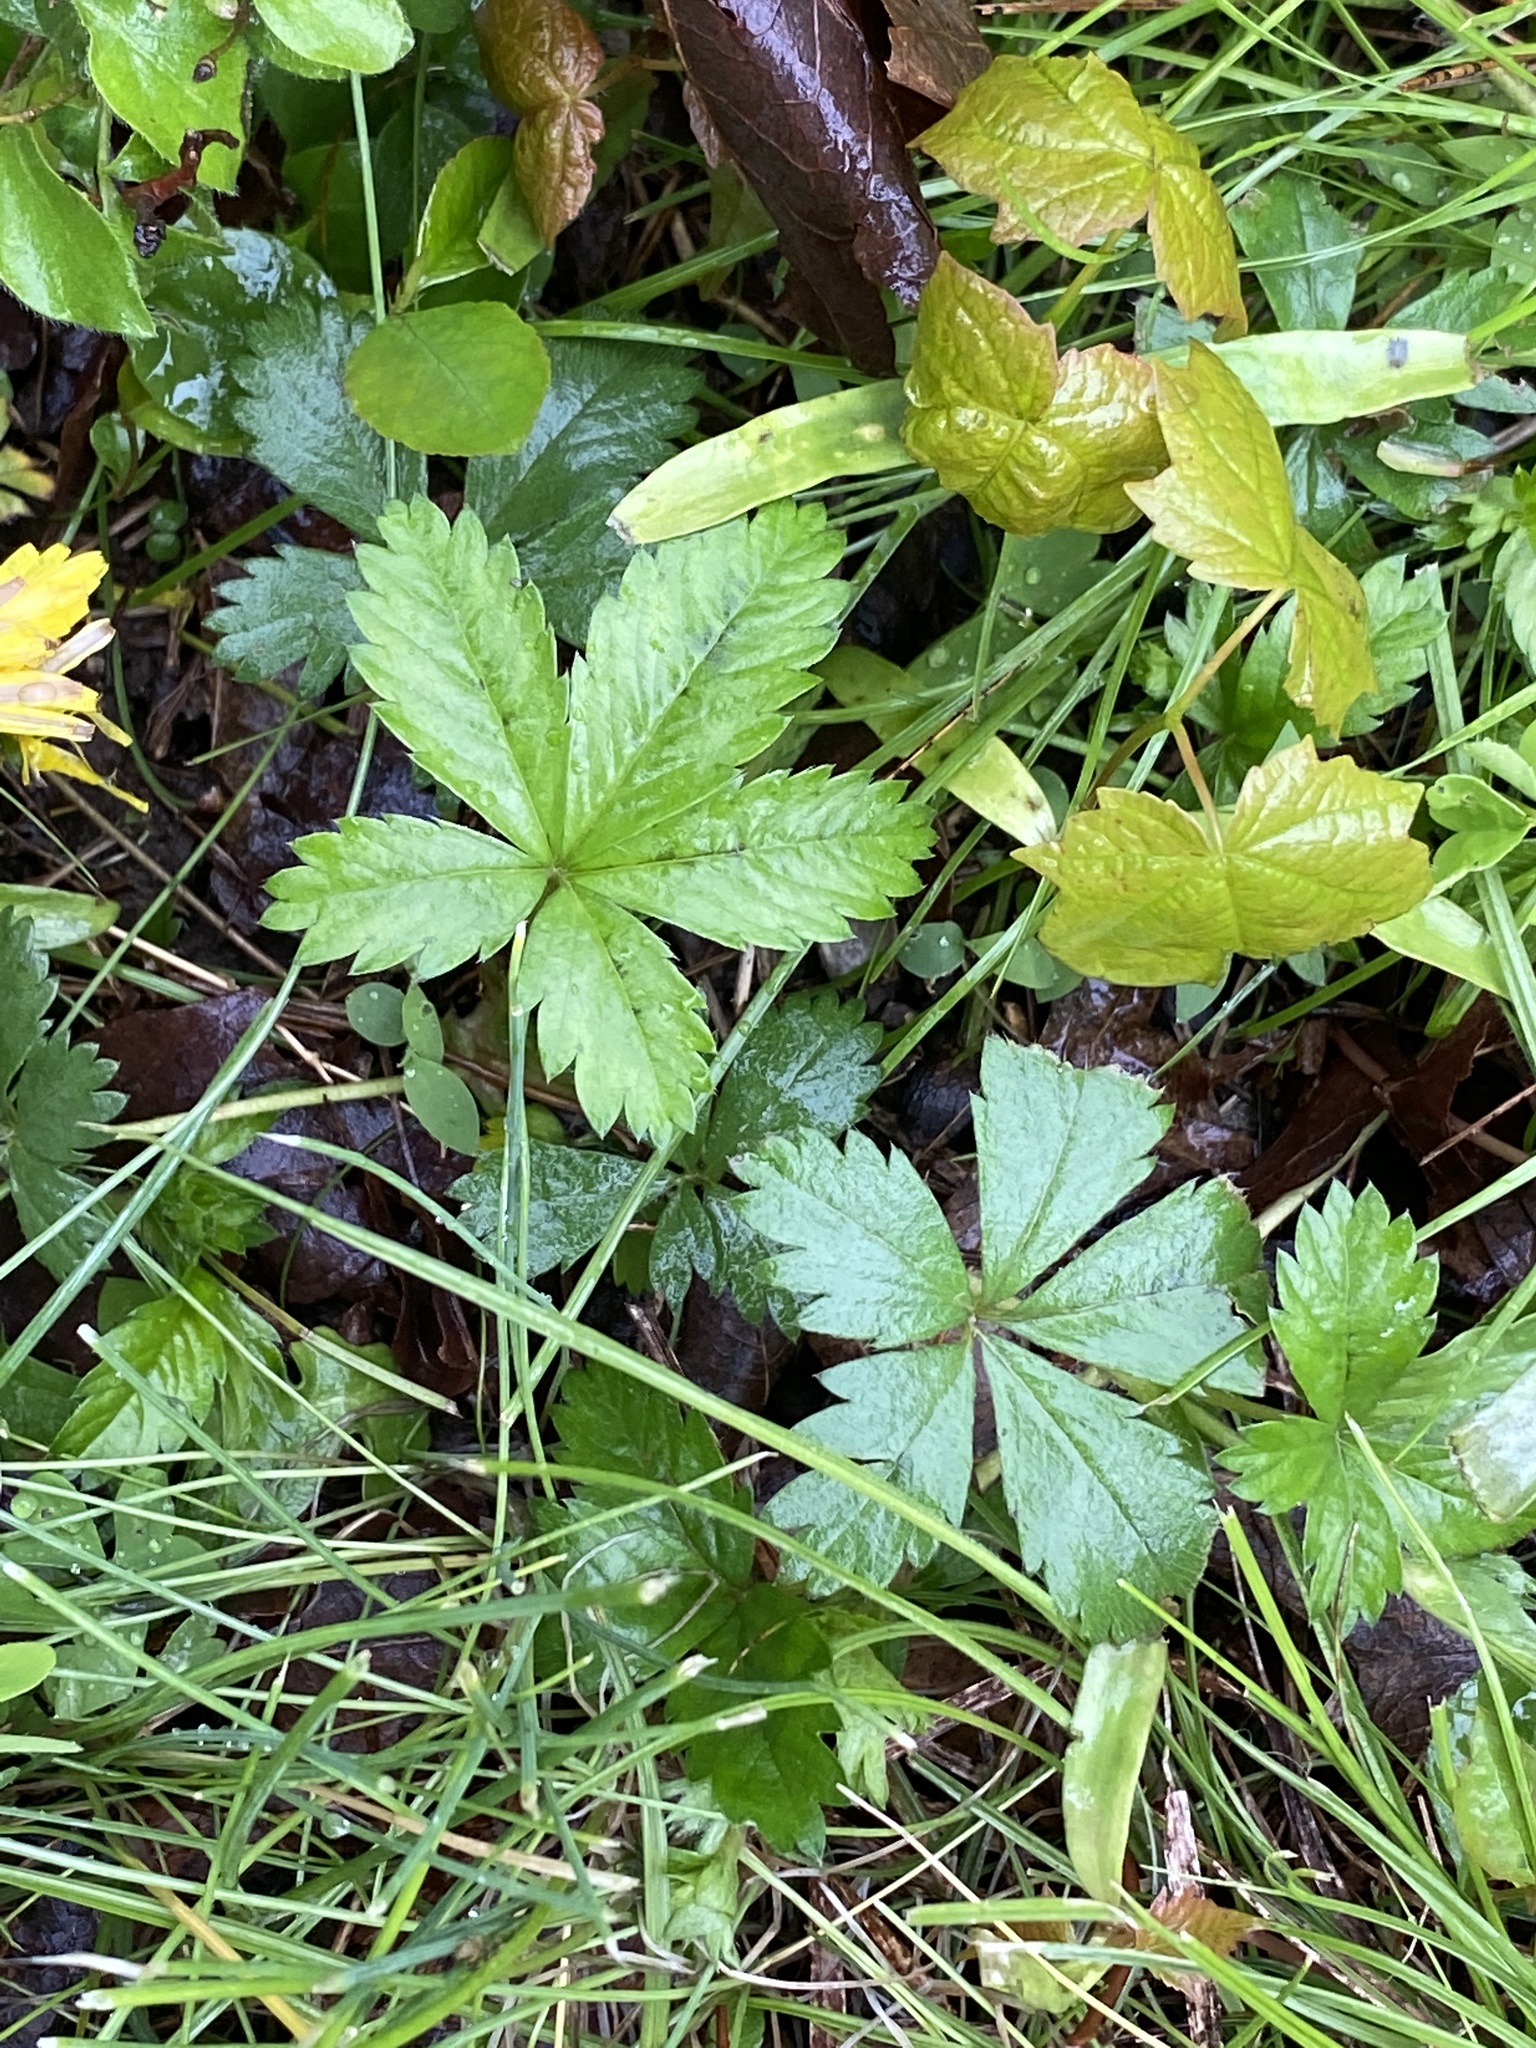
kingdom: Plantae
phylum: Tracheophyta
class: Magnoliopsida
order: Rosales
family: Rosaceae
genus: Potentilla
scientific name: Potentilla canadensis
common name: Canada cinquefoil
